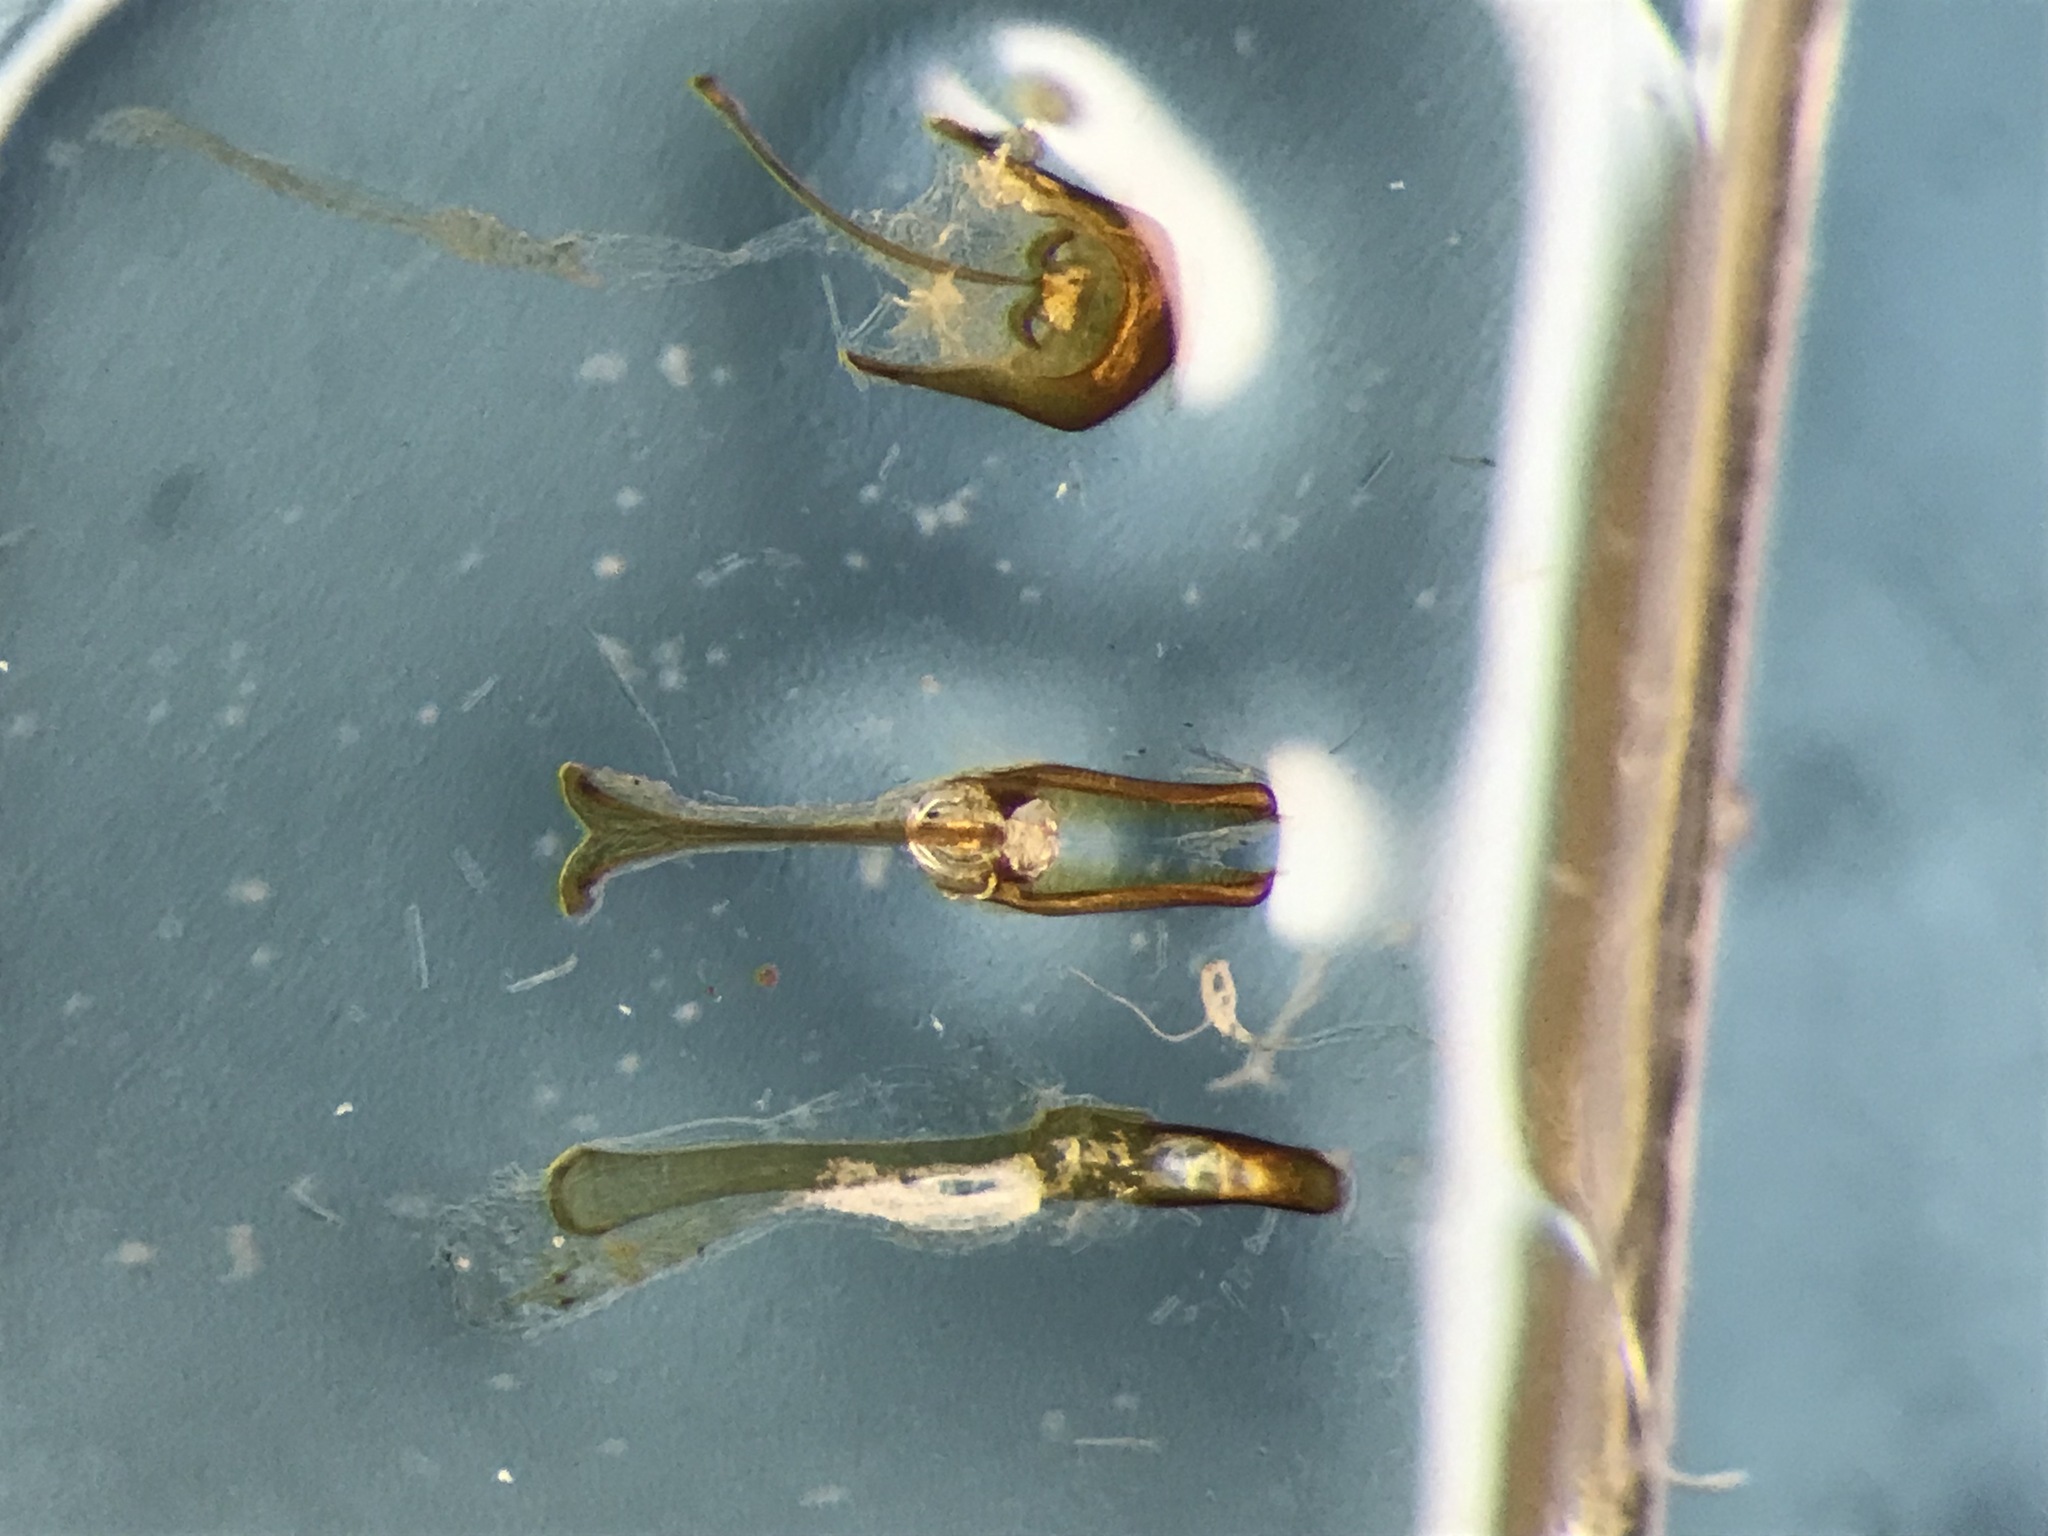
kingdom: Animalia
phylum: Arthropoda
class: Insecta
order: Coleoptera
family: Nitidulidae
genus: Epuraea
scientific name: Epuraea avara
